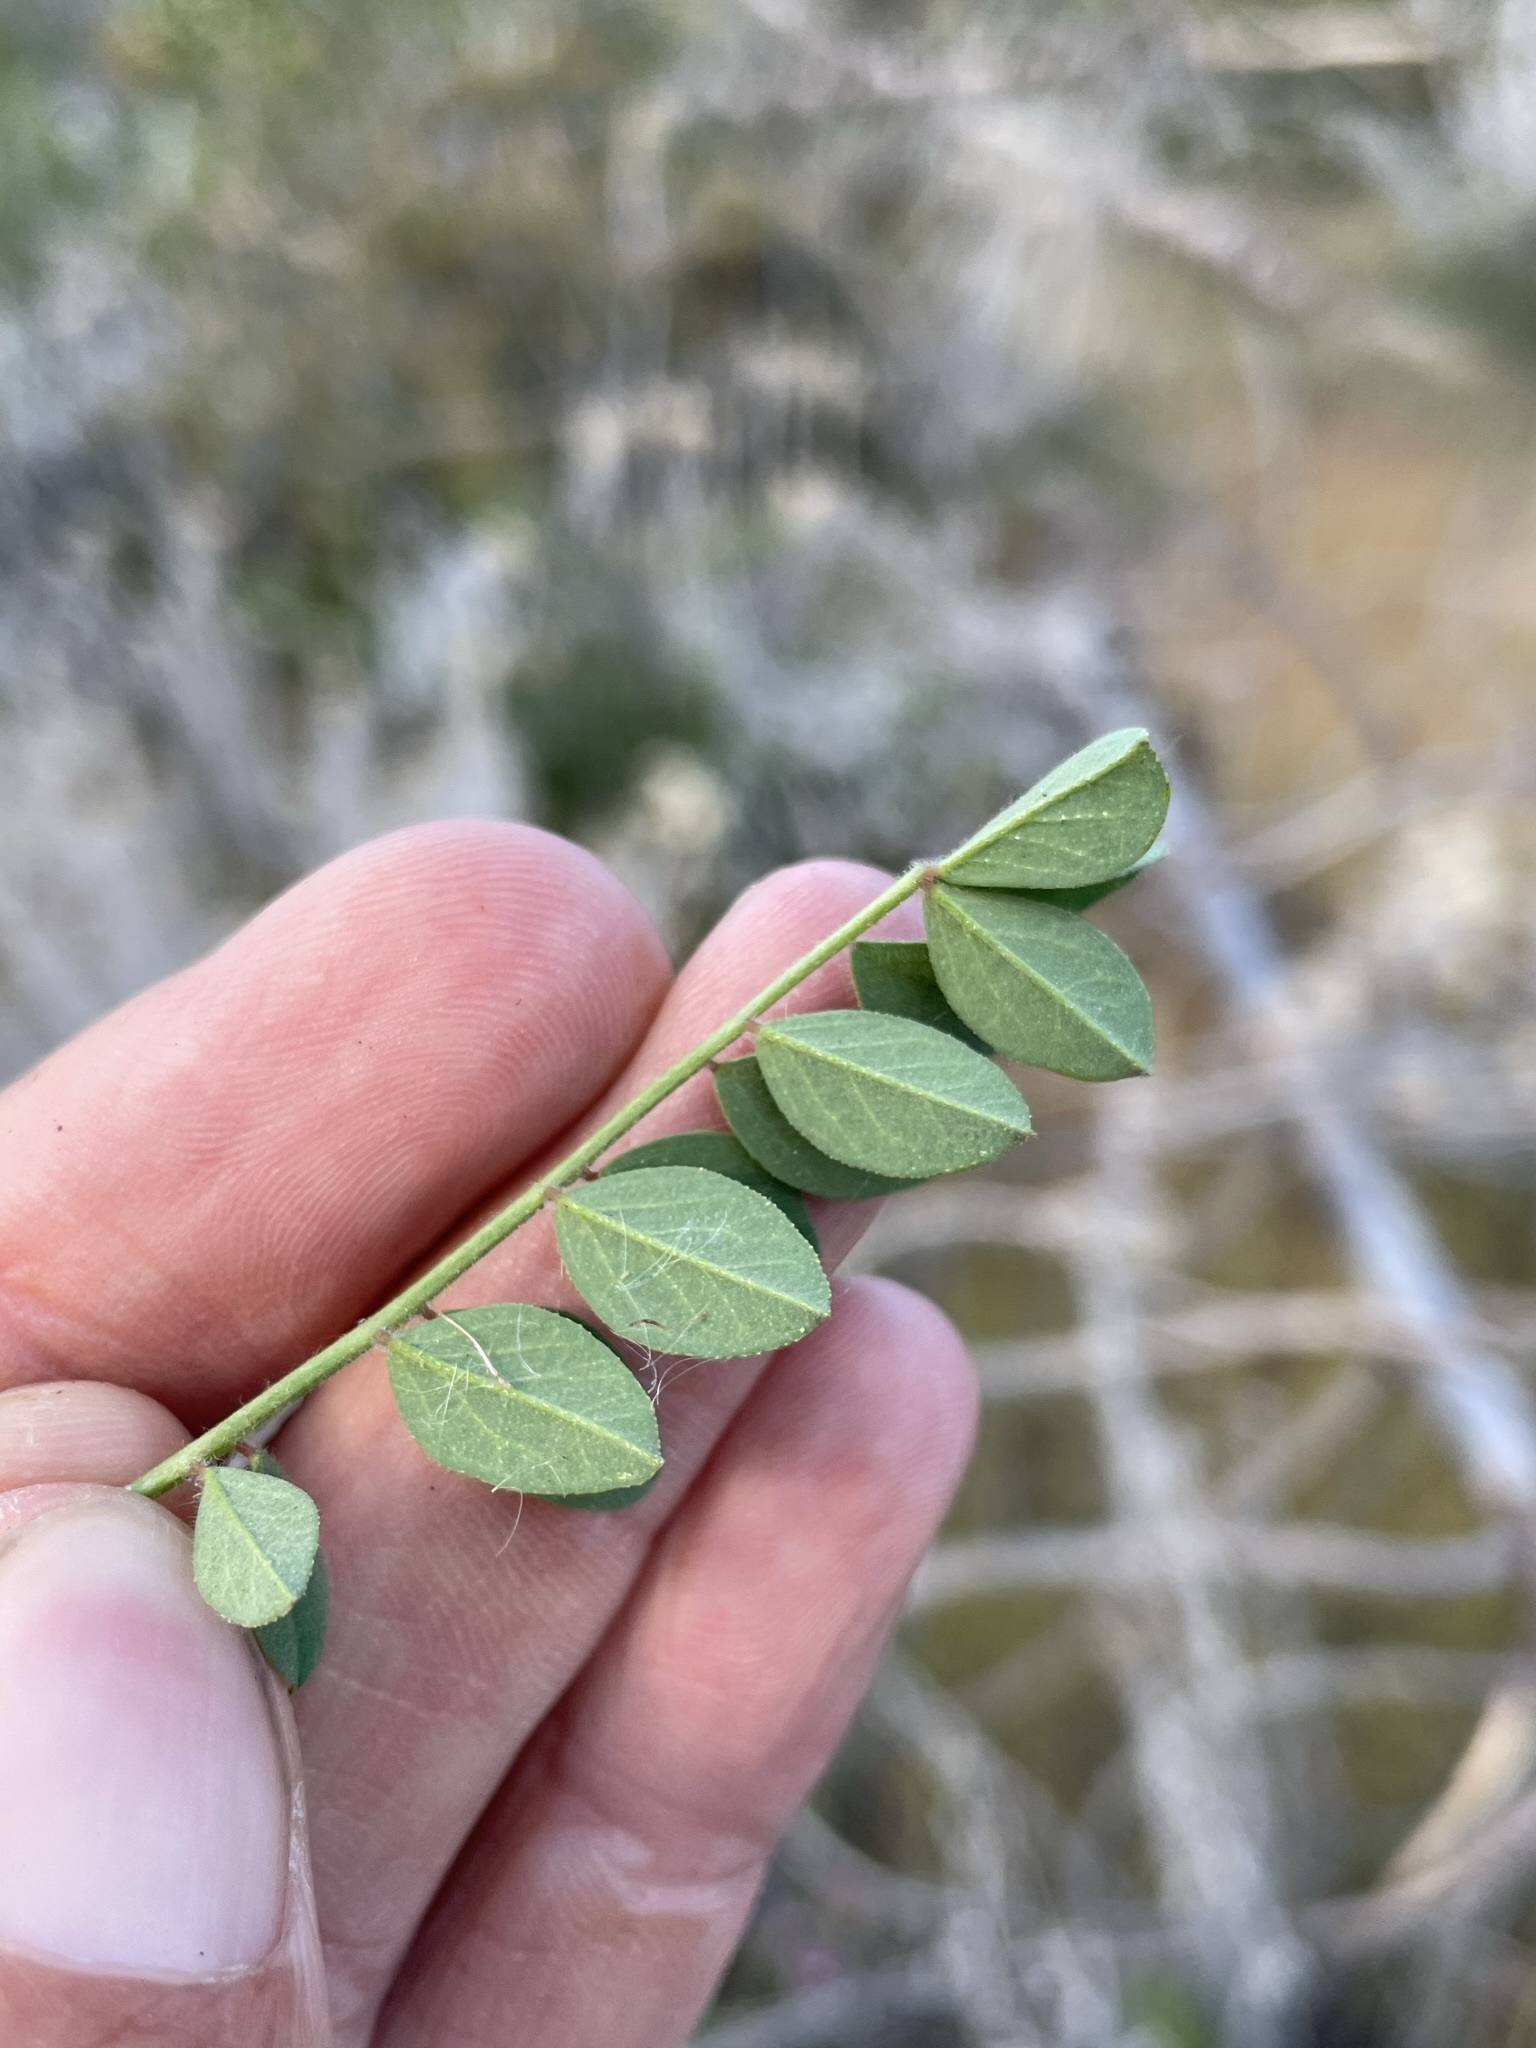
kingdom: Plantae
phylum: Tracheophyta
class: Magnoliopsida
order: Fabales
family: Fabaceae
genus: Hosackia
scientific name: Hosackia stipularis
